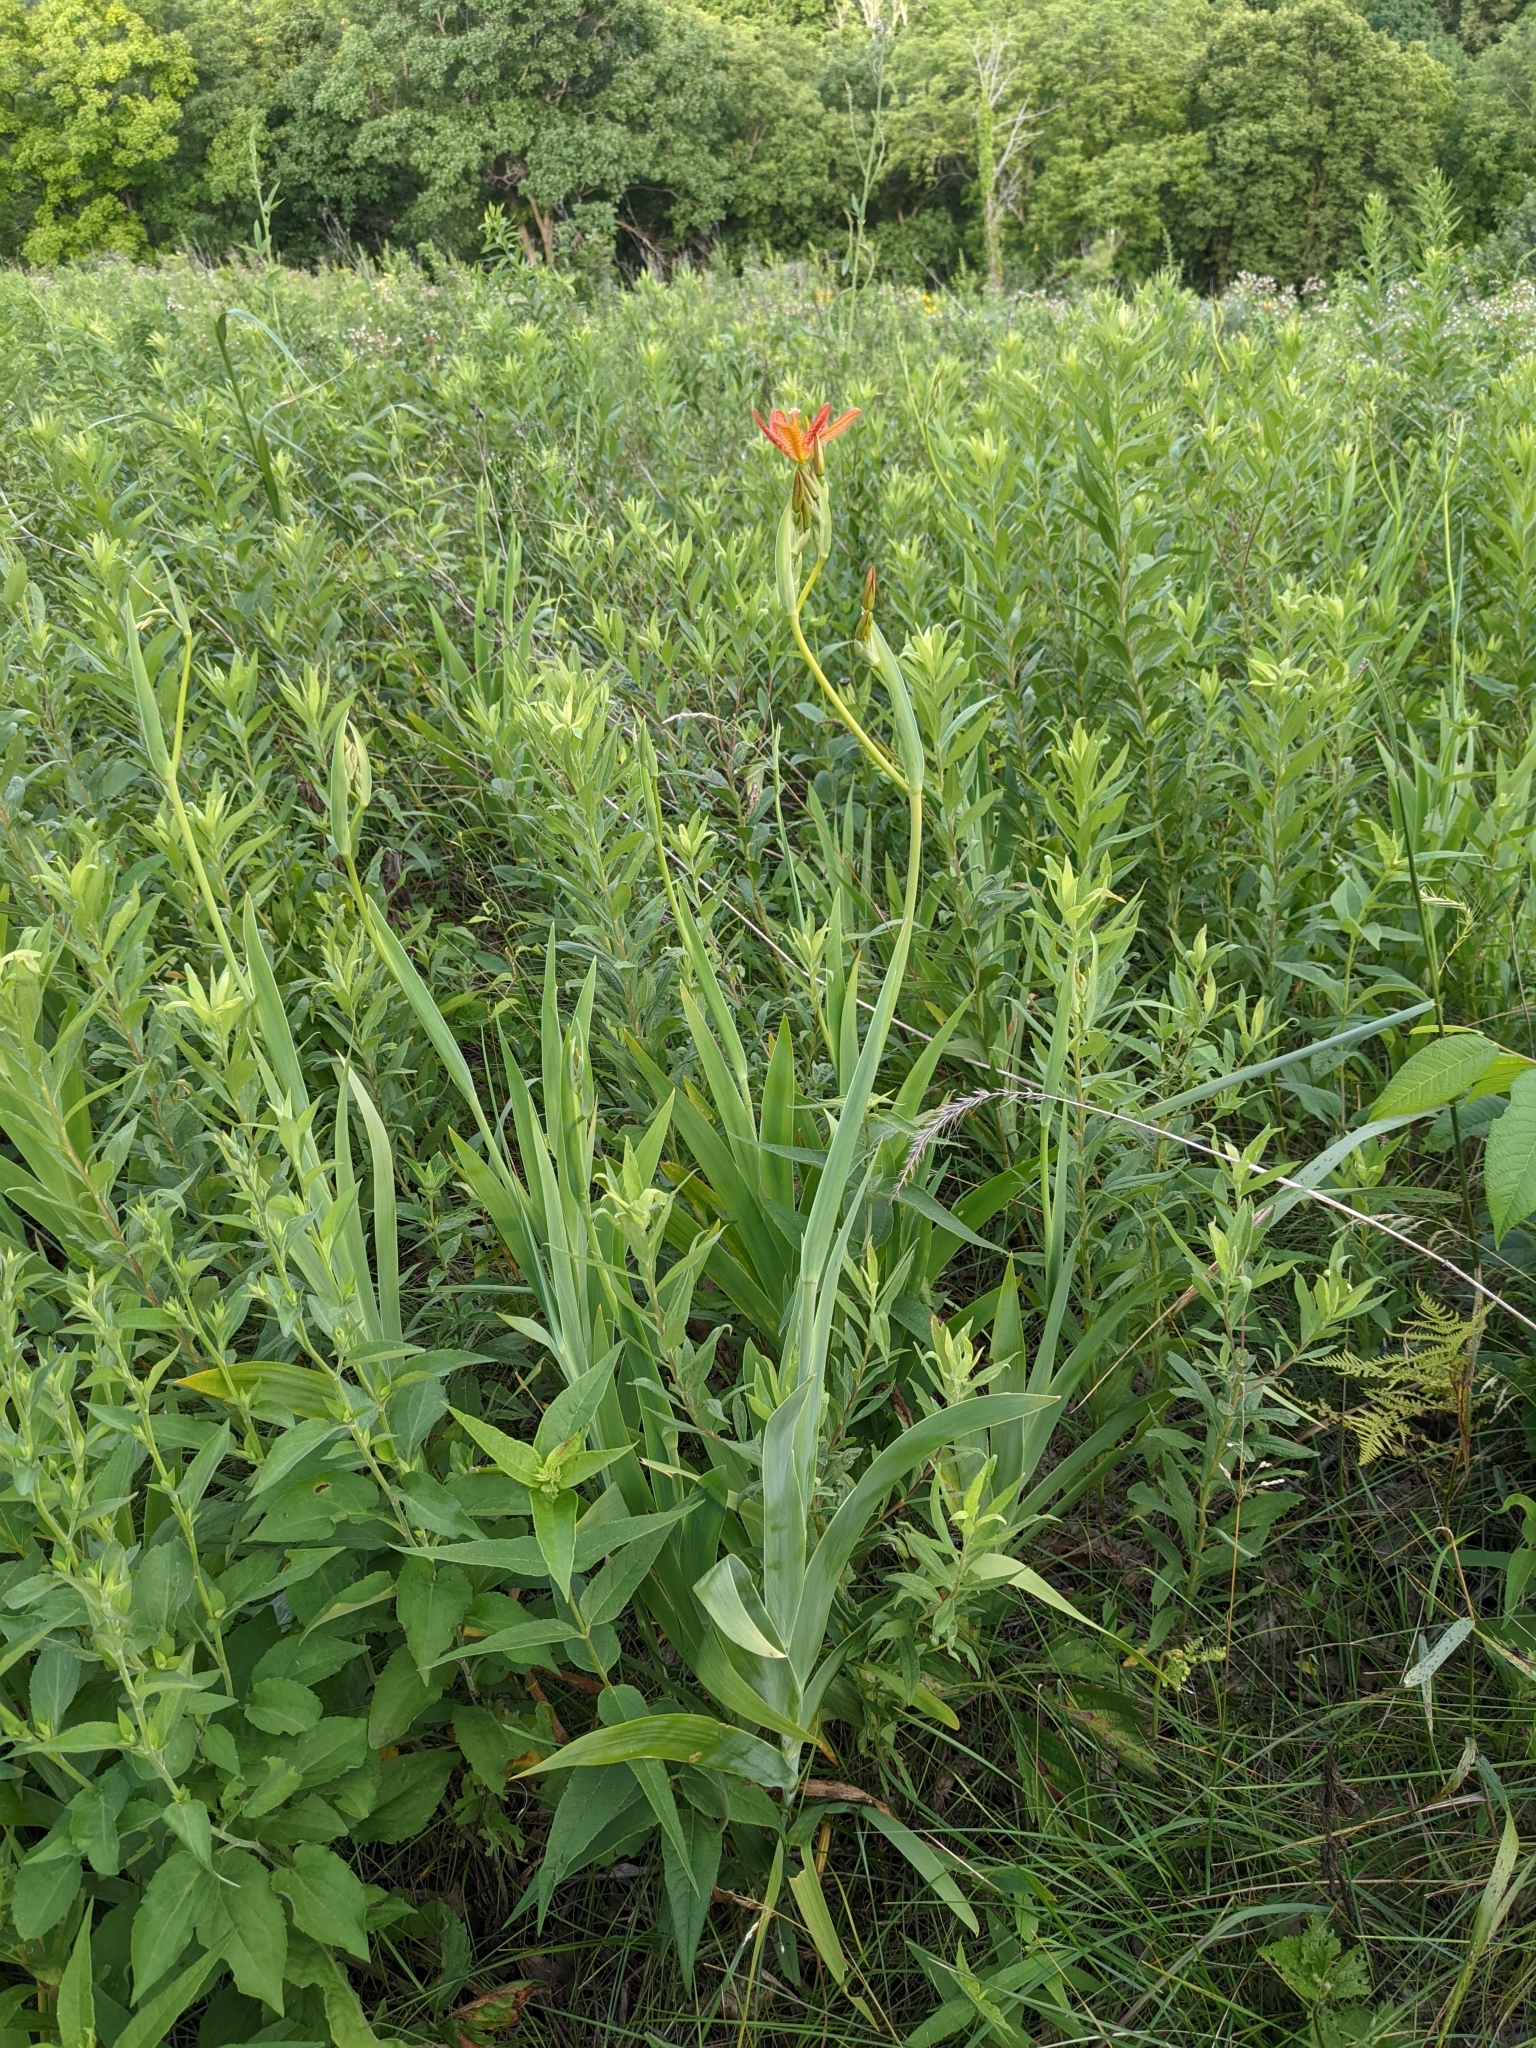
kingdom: Plantae
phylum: Tracheophyta
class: Liliopsida
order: Asparagales
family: Iridaceae
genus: Iris
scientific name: Iris domestica
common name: Belamcanda
